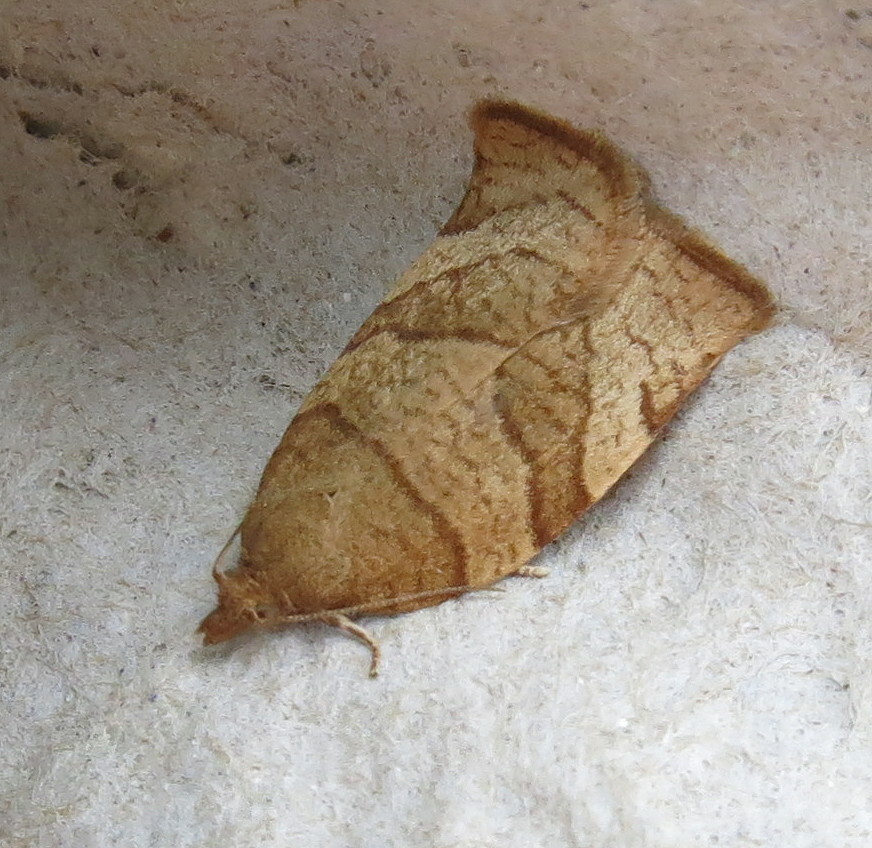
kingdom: Animalia
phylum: Arthropoda
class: Insecta
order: Lepidoptera
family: Tortricidae
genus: Pandemis
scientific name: Pandemis cerasana
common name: Barred fruit-tree tortrix
